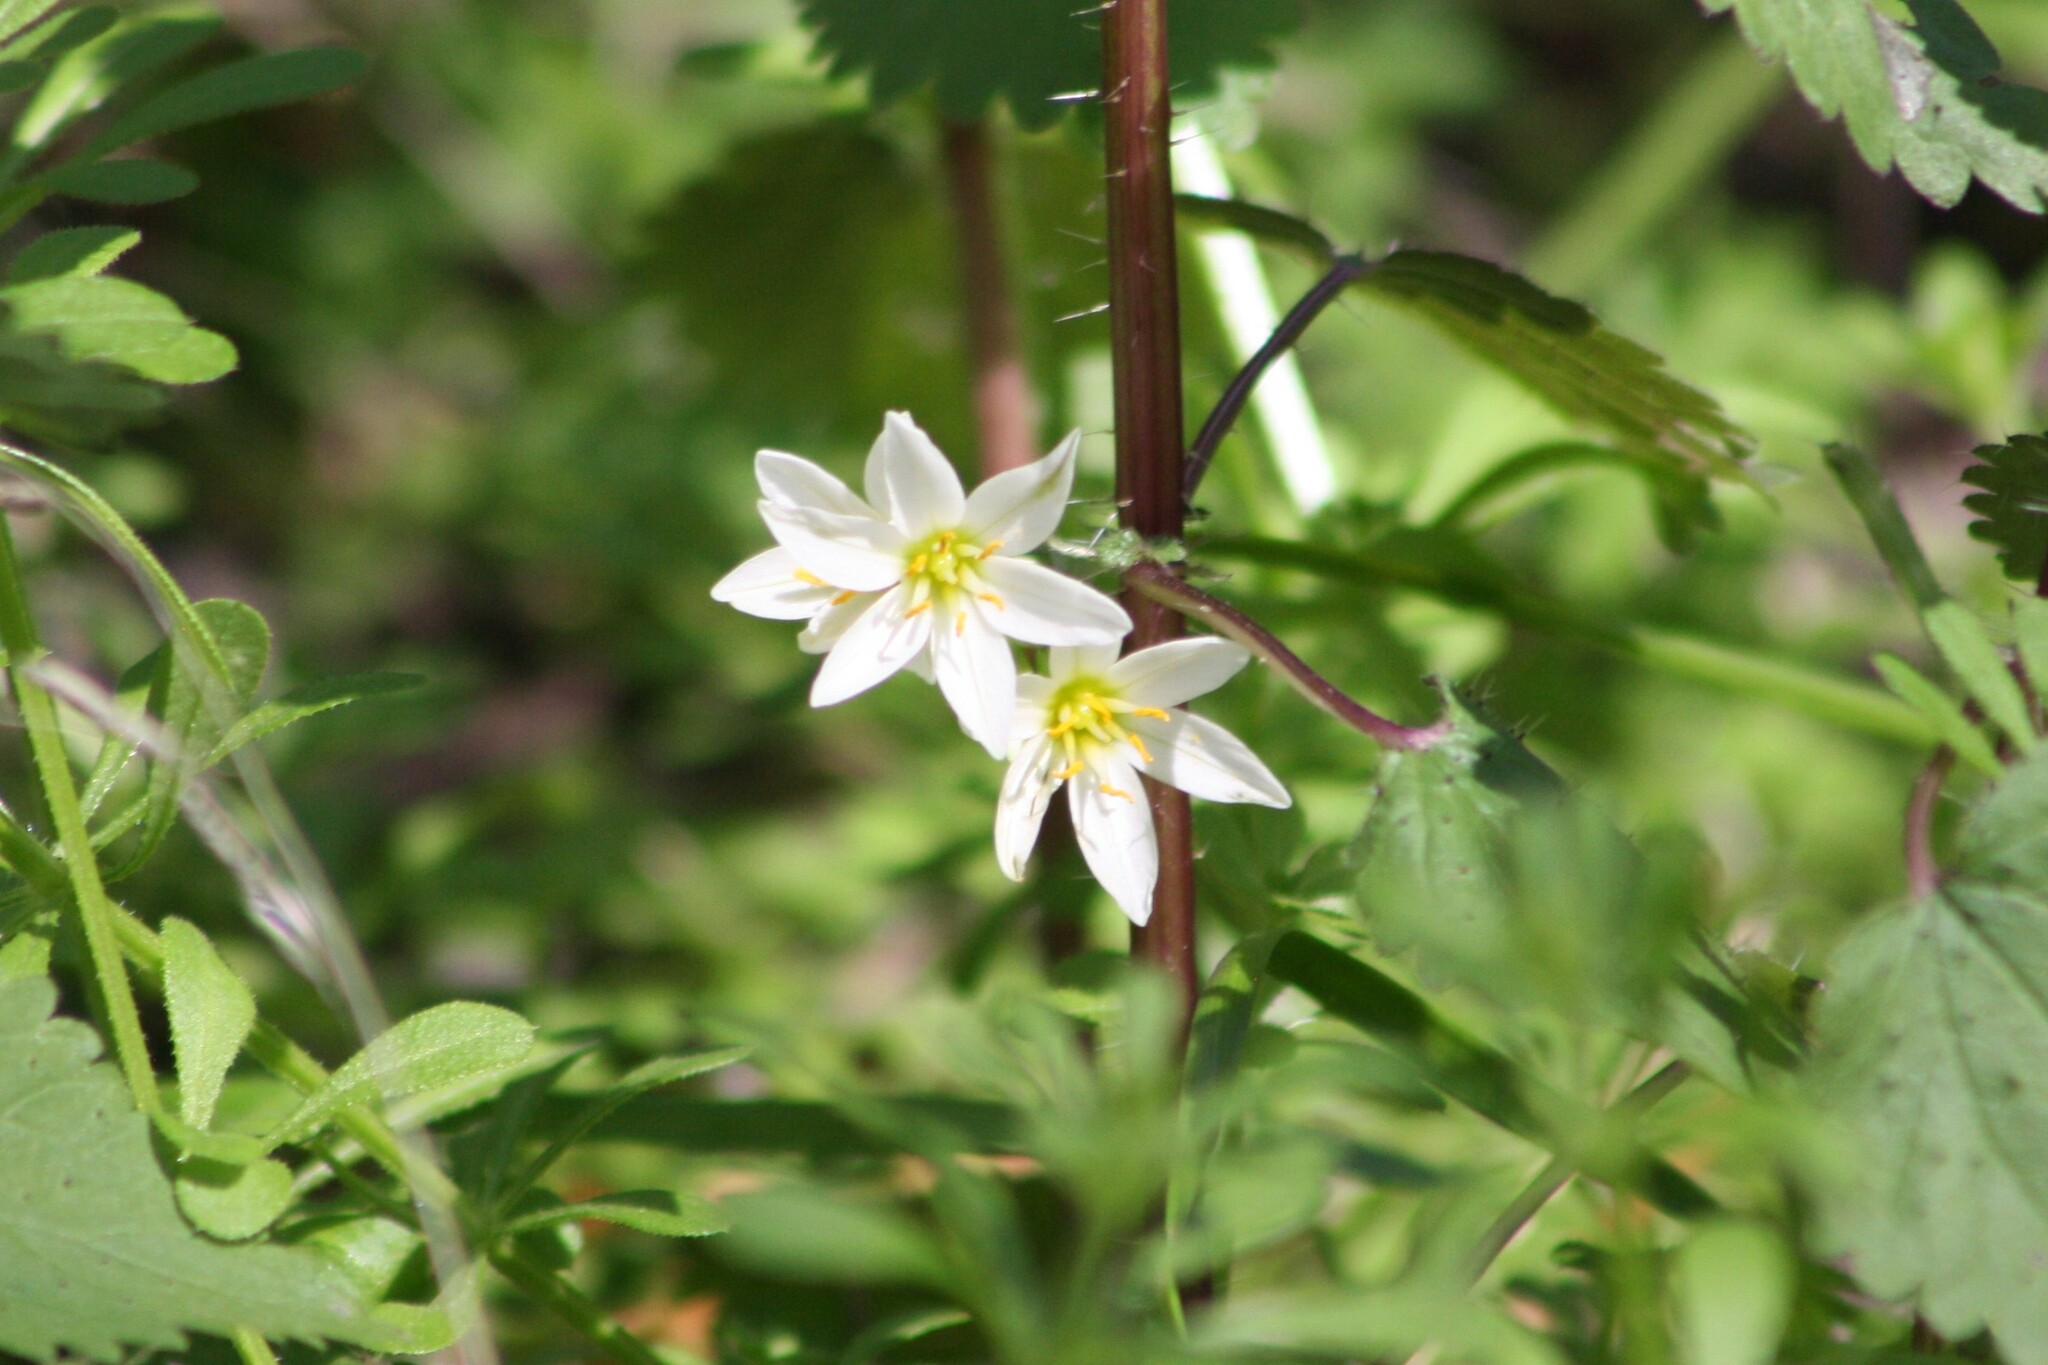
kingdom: Plantae
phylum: Tracheophyta
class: Liliopsida
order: Asparagales
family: Amaryllidaceae
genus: Nothoscordum
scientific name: Nothoscordum bivalve
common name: Crow-poison
